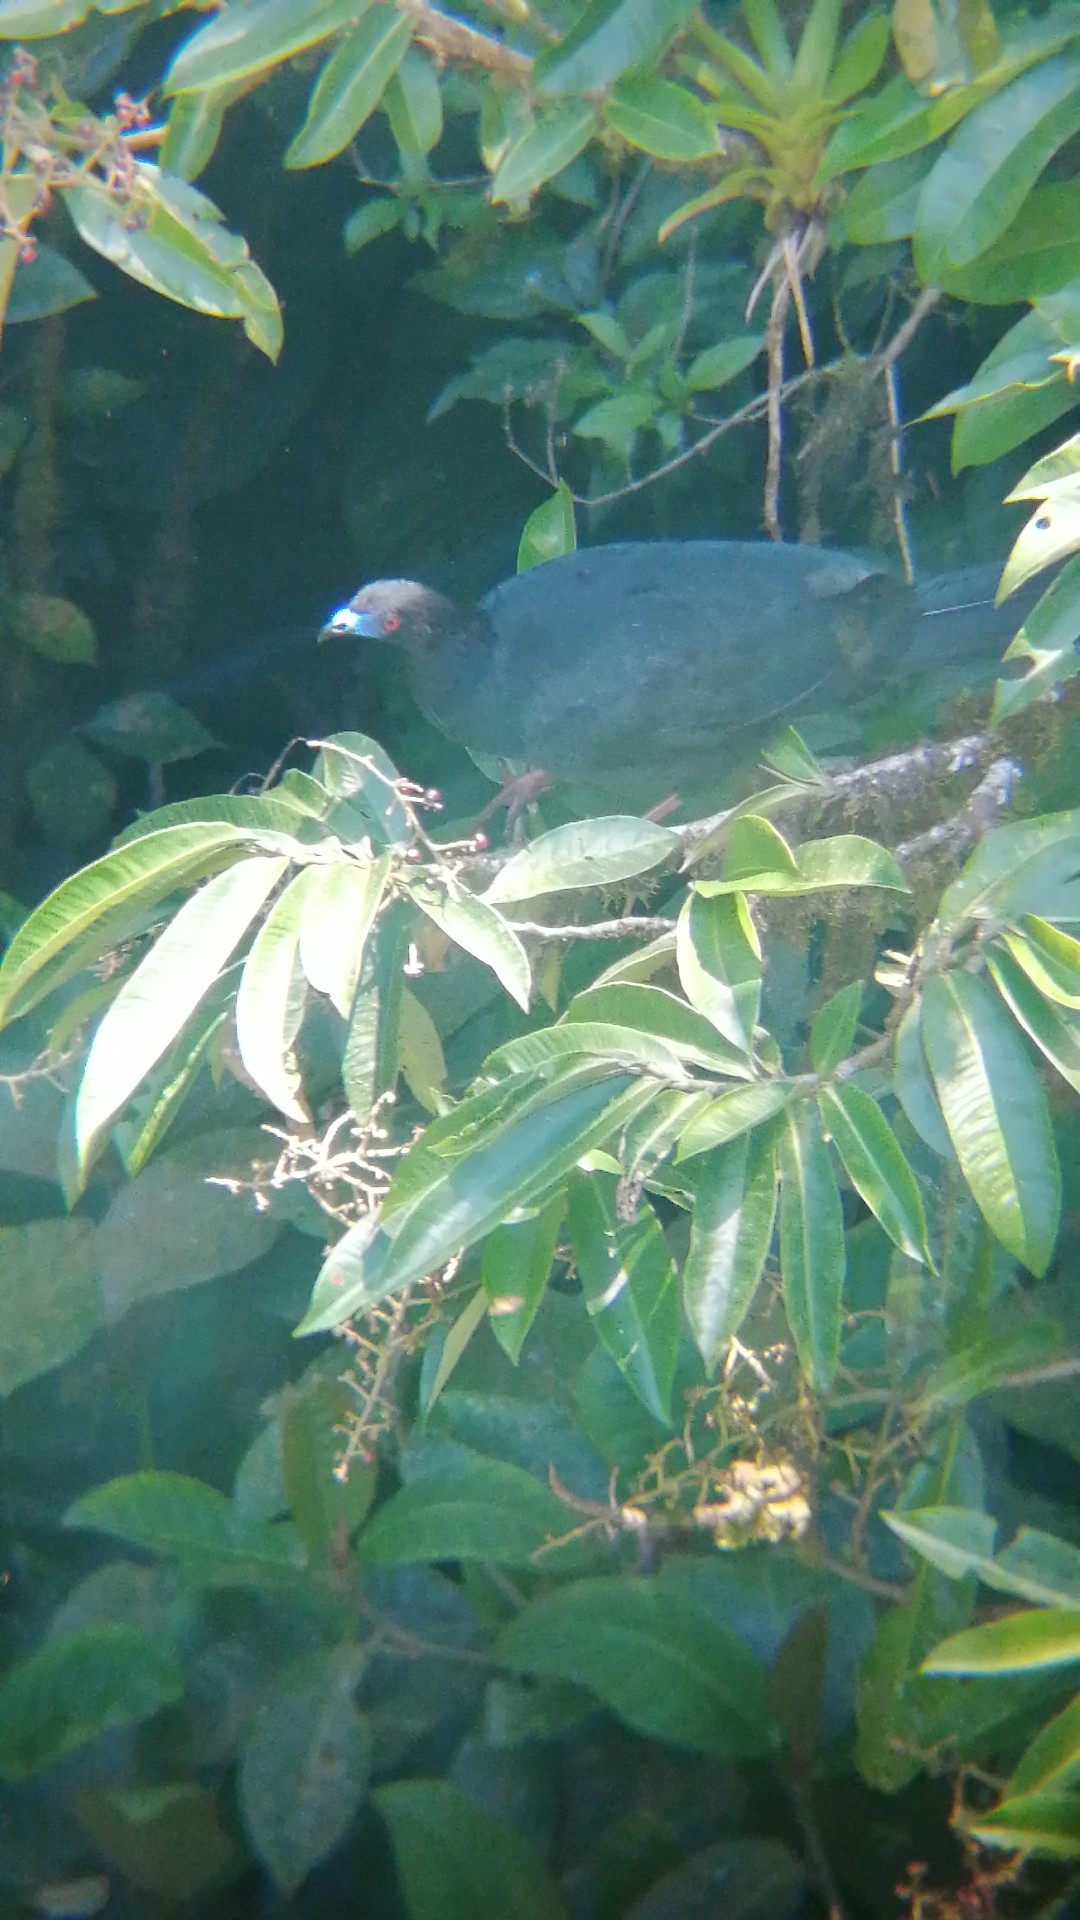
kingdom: Animalia
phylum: Chordata
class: Aves
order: Galliformes
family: Cracidae
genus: Chamaepetes
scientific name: Chamaepetes unicolor
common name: Black guan
